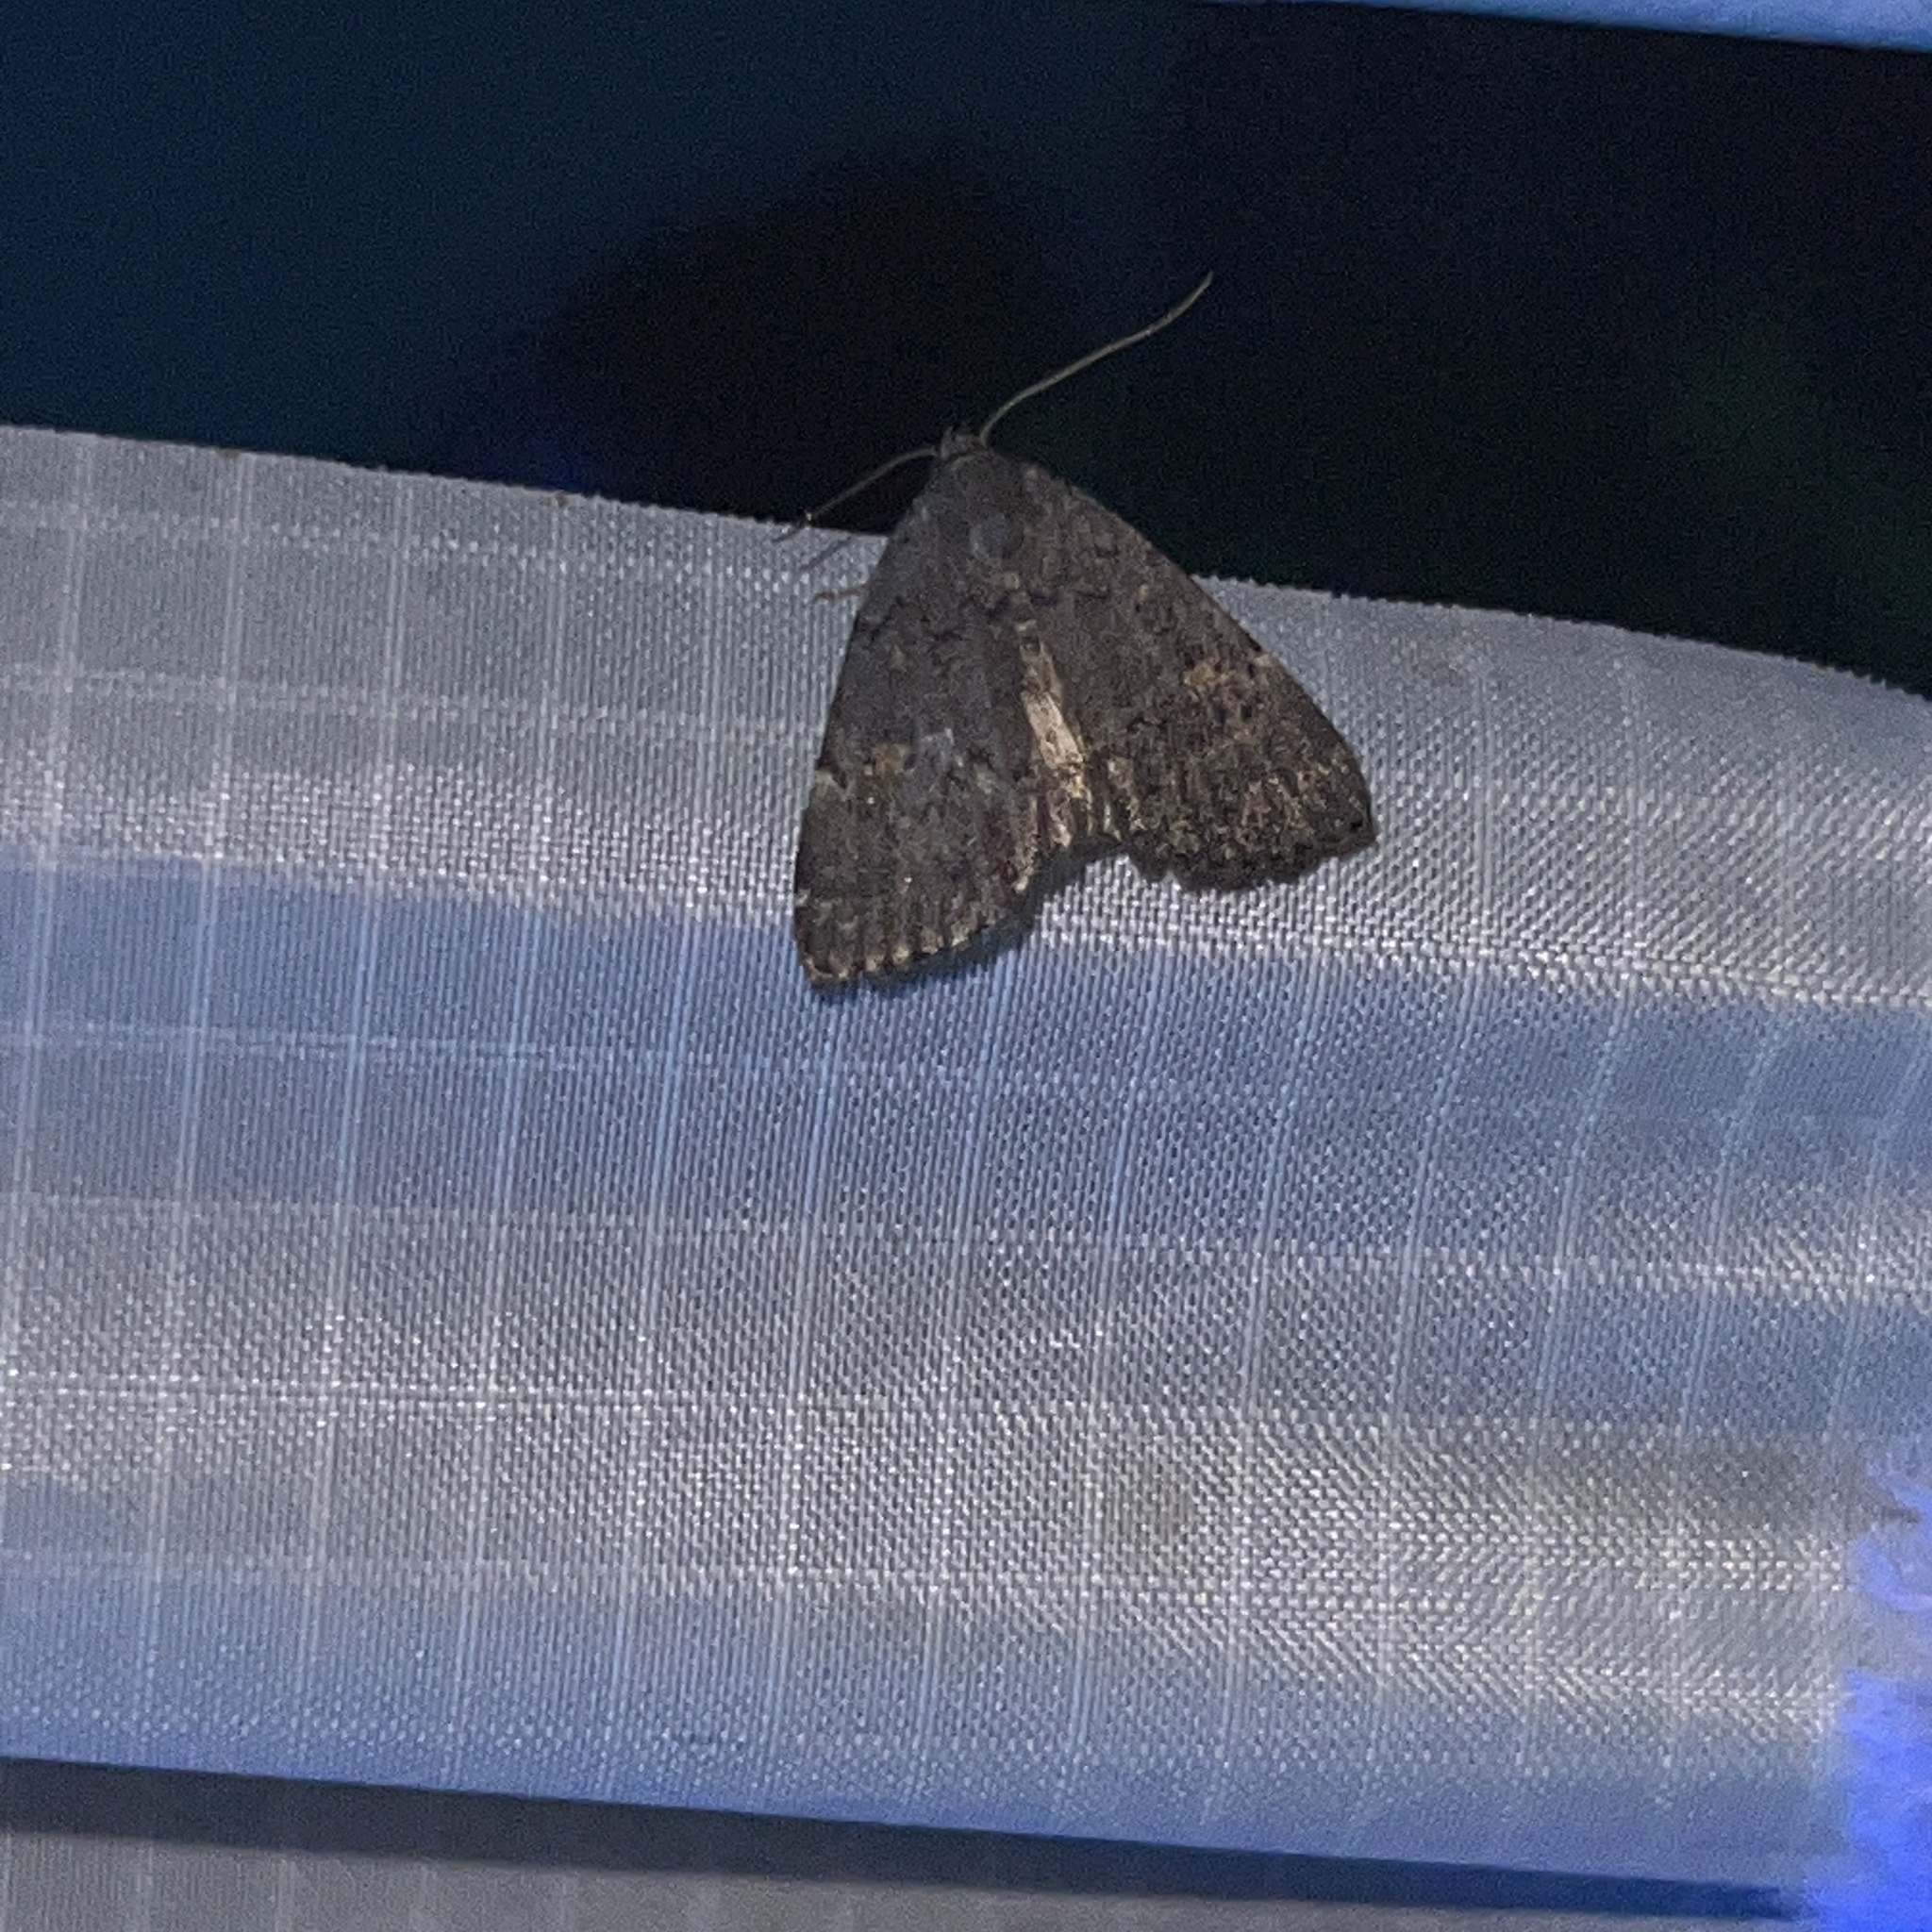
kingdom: Animalia
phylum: Arthropoda
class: Insecta
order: Lepidoptera
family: Erebidae
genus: Idia
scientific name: Idia aemula
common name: Common idia moth
